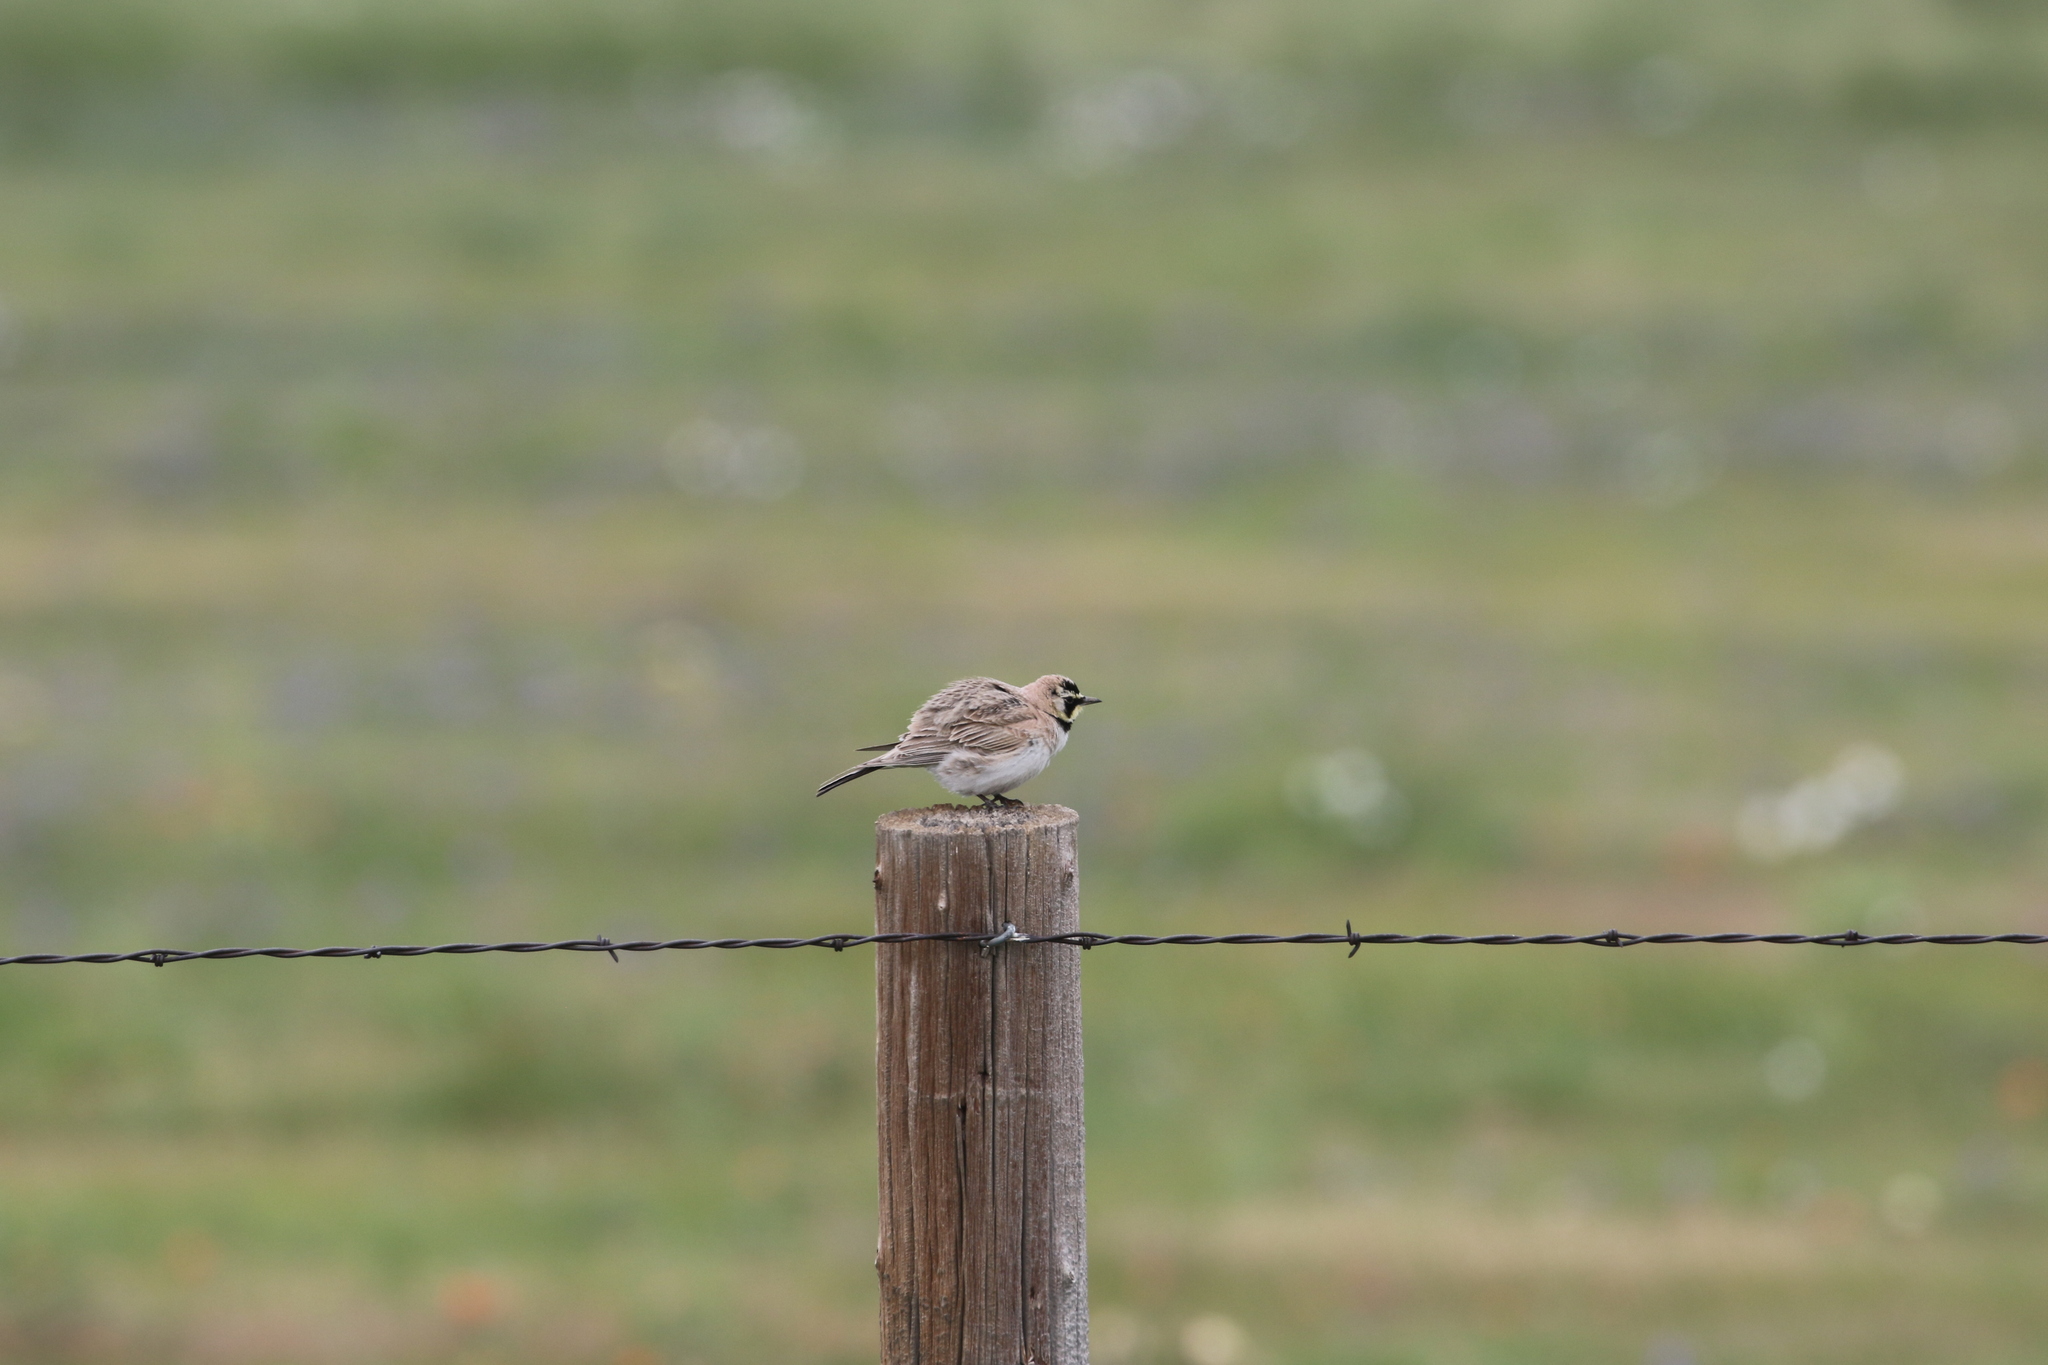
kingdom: Animalia
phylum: Chordata
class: Aves
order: Passeriformes
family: Alaudidae
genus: Eremophila
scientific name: Eremophila alpestris
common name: Horned lark
